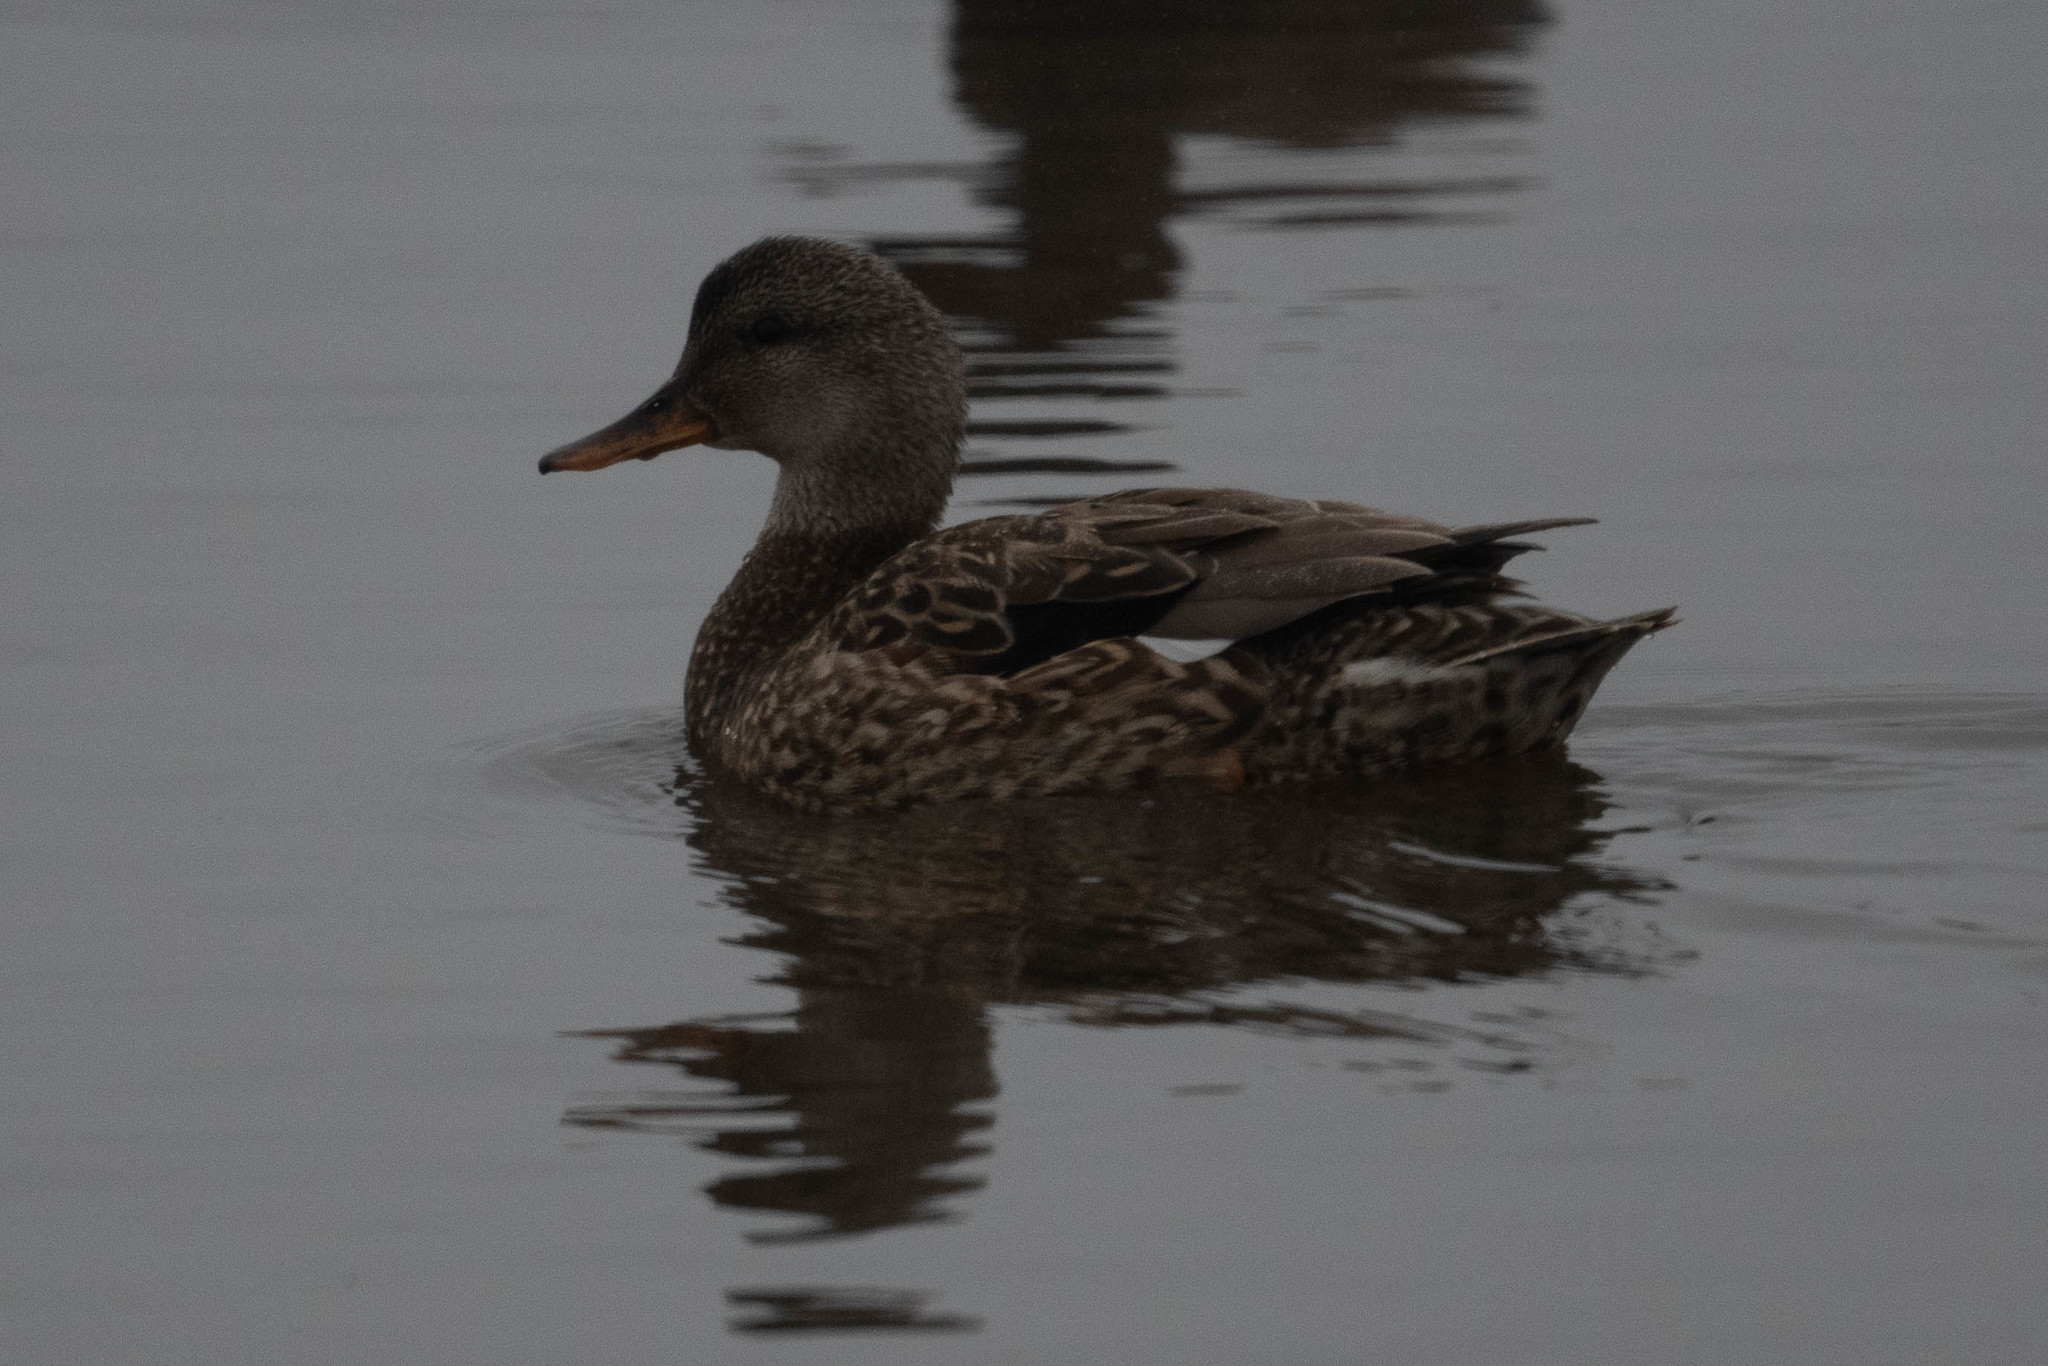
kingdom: Animalia
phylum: Chordata
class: Aves
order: Anseriformes
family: Anatidae
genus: Mareca
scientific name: Mareca strepera
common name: Gadwall
